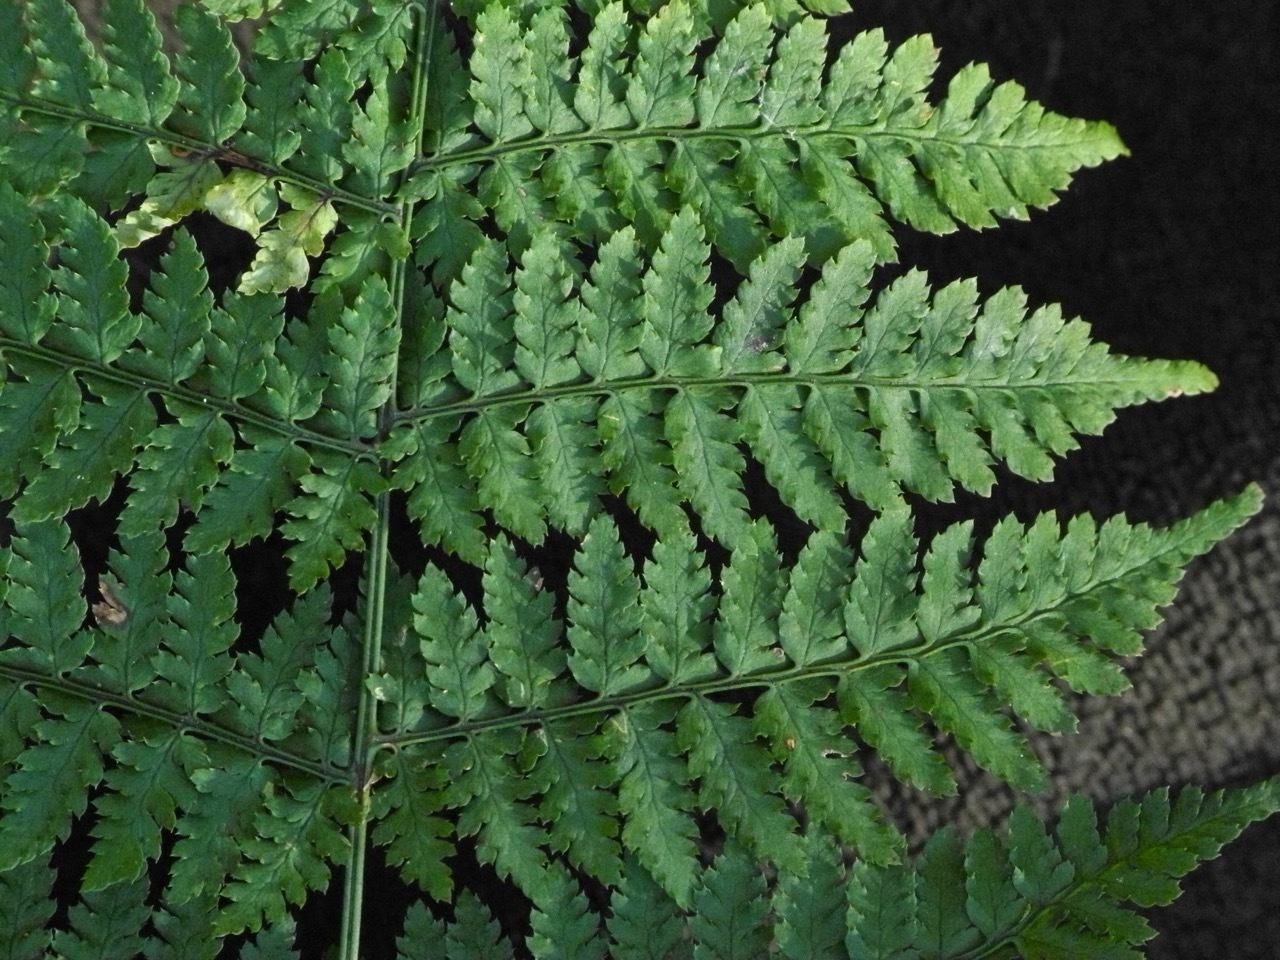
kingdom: Plantae
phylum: Tracheophyta
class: Polypodiopsida
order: Polypodiales
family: Dryopteridaceae
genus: Dryopteris
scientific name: Dryopteris intermedia
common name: Evergreen wood fern
